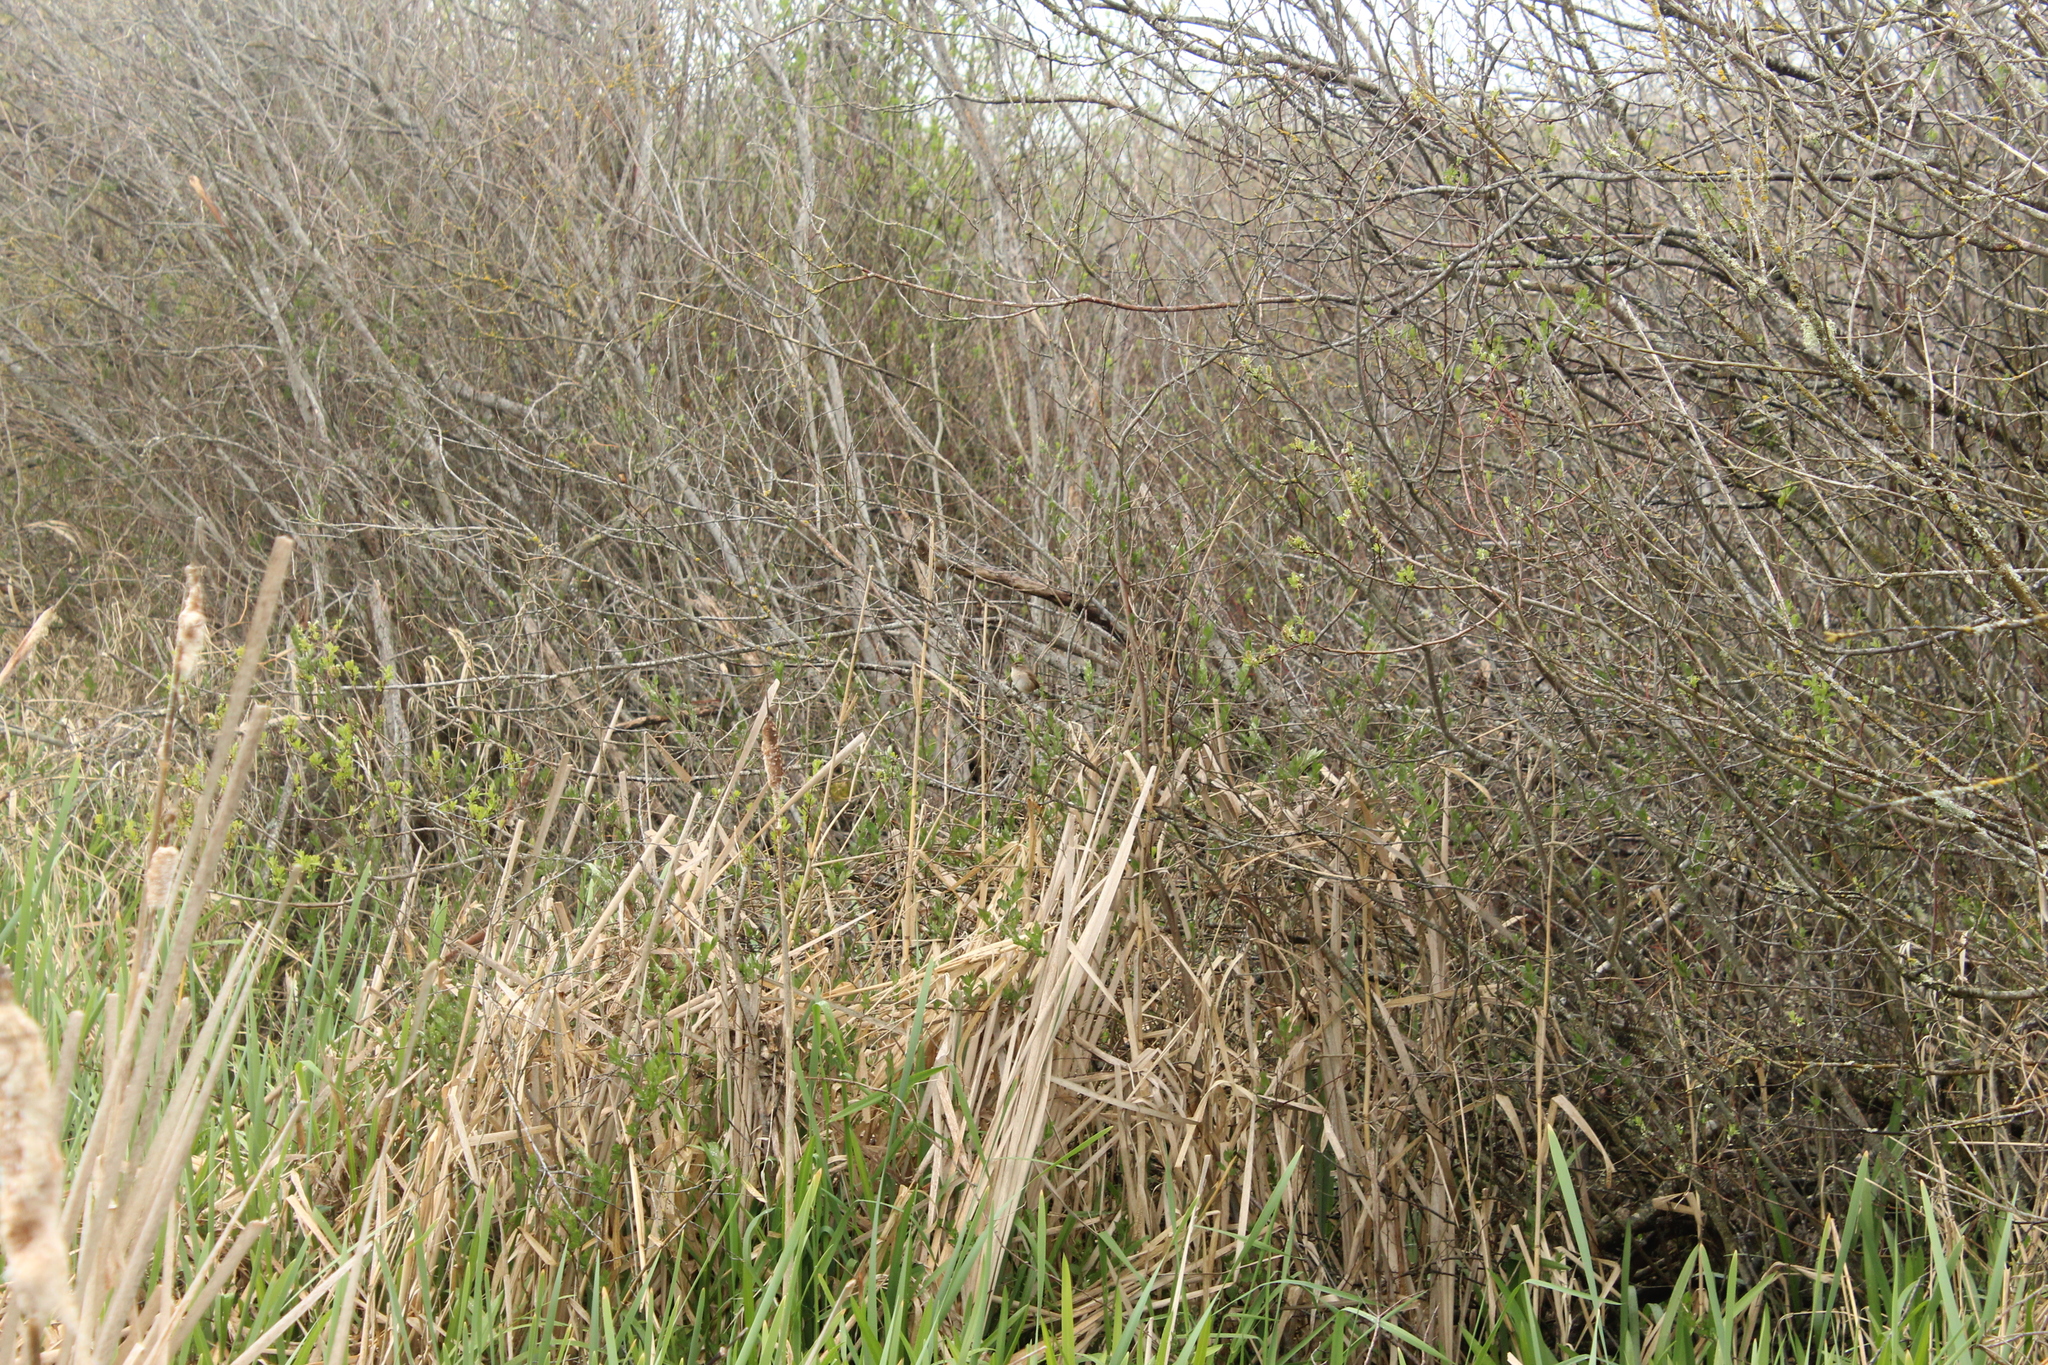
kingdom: Animalia
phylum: Chordata
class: Aves
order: Passeriformes
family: Troglodytidae
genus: Cistothorus
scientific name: Cistothorus palustris
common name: Marsh wren
